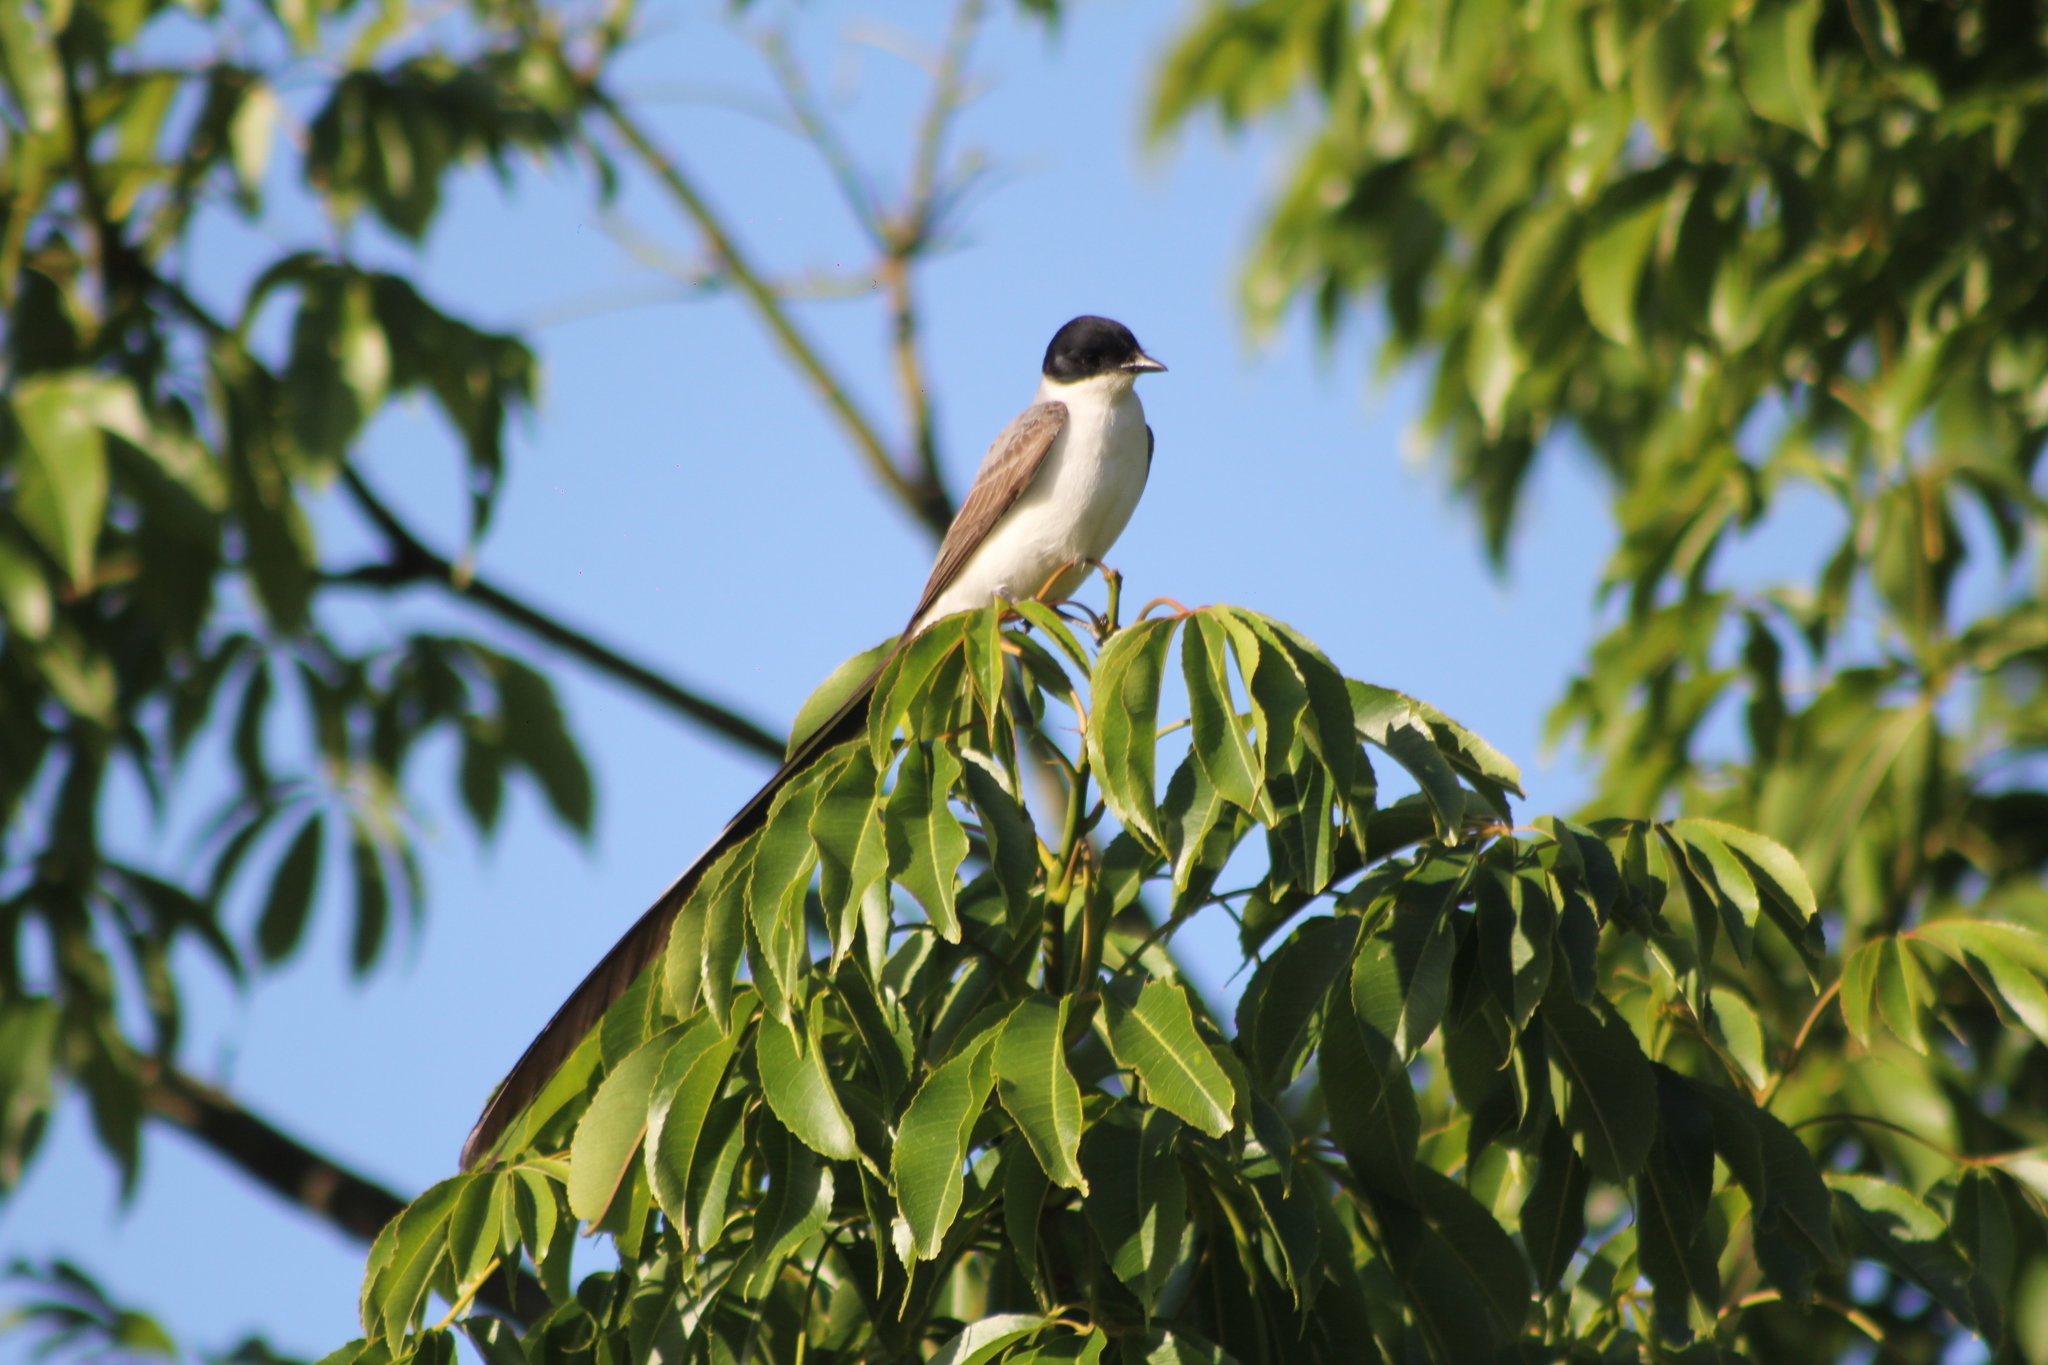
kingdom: Animalia
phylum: Chordata
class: Aves
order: Passeriformes
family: Tyrannidae
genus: Tyrannus
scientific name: Tyrannus savana
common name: Fork-tailed flycatcher
